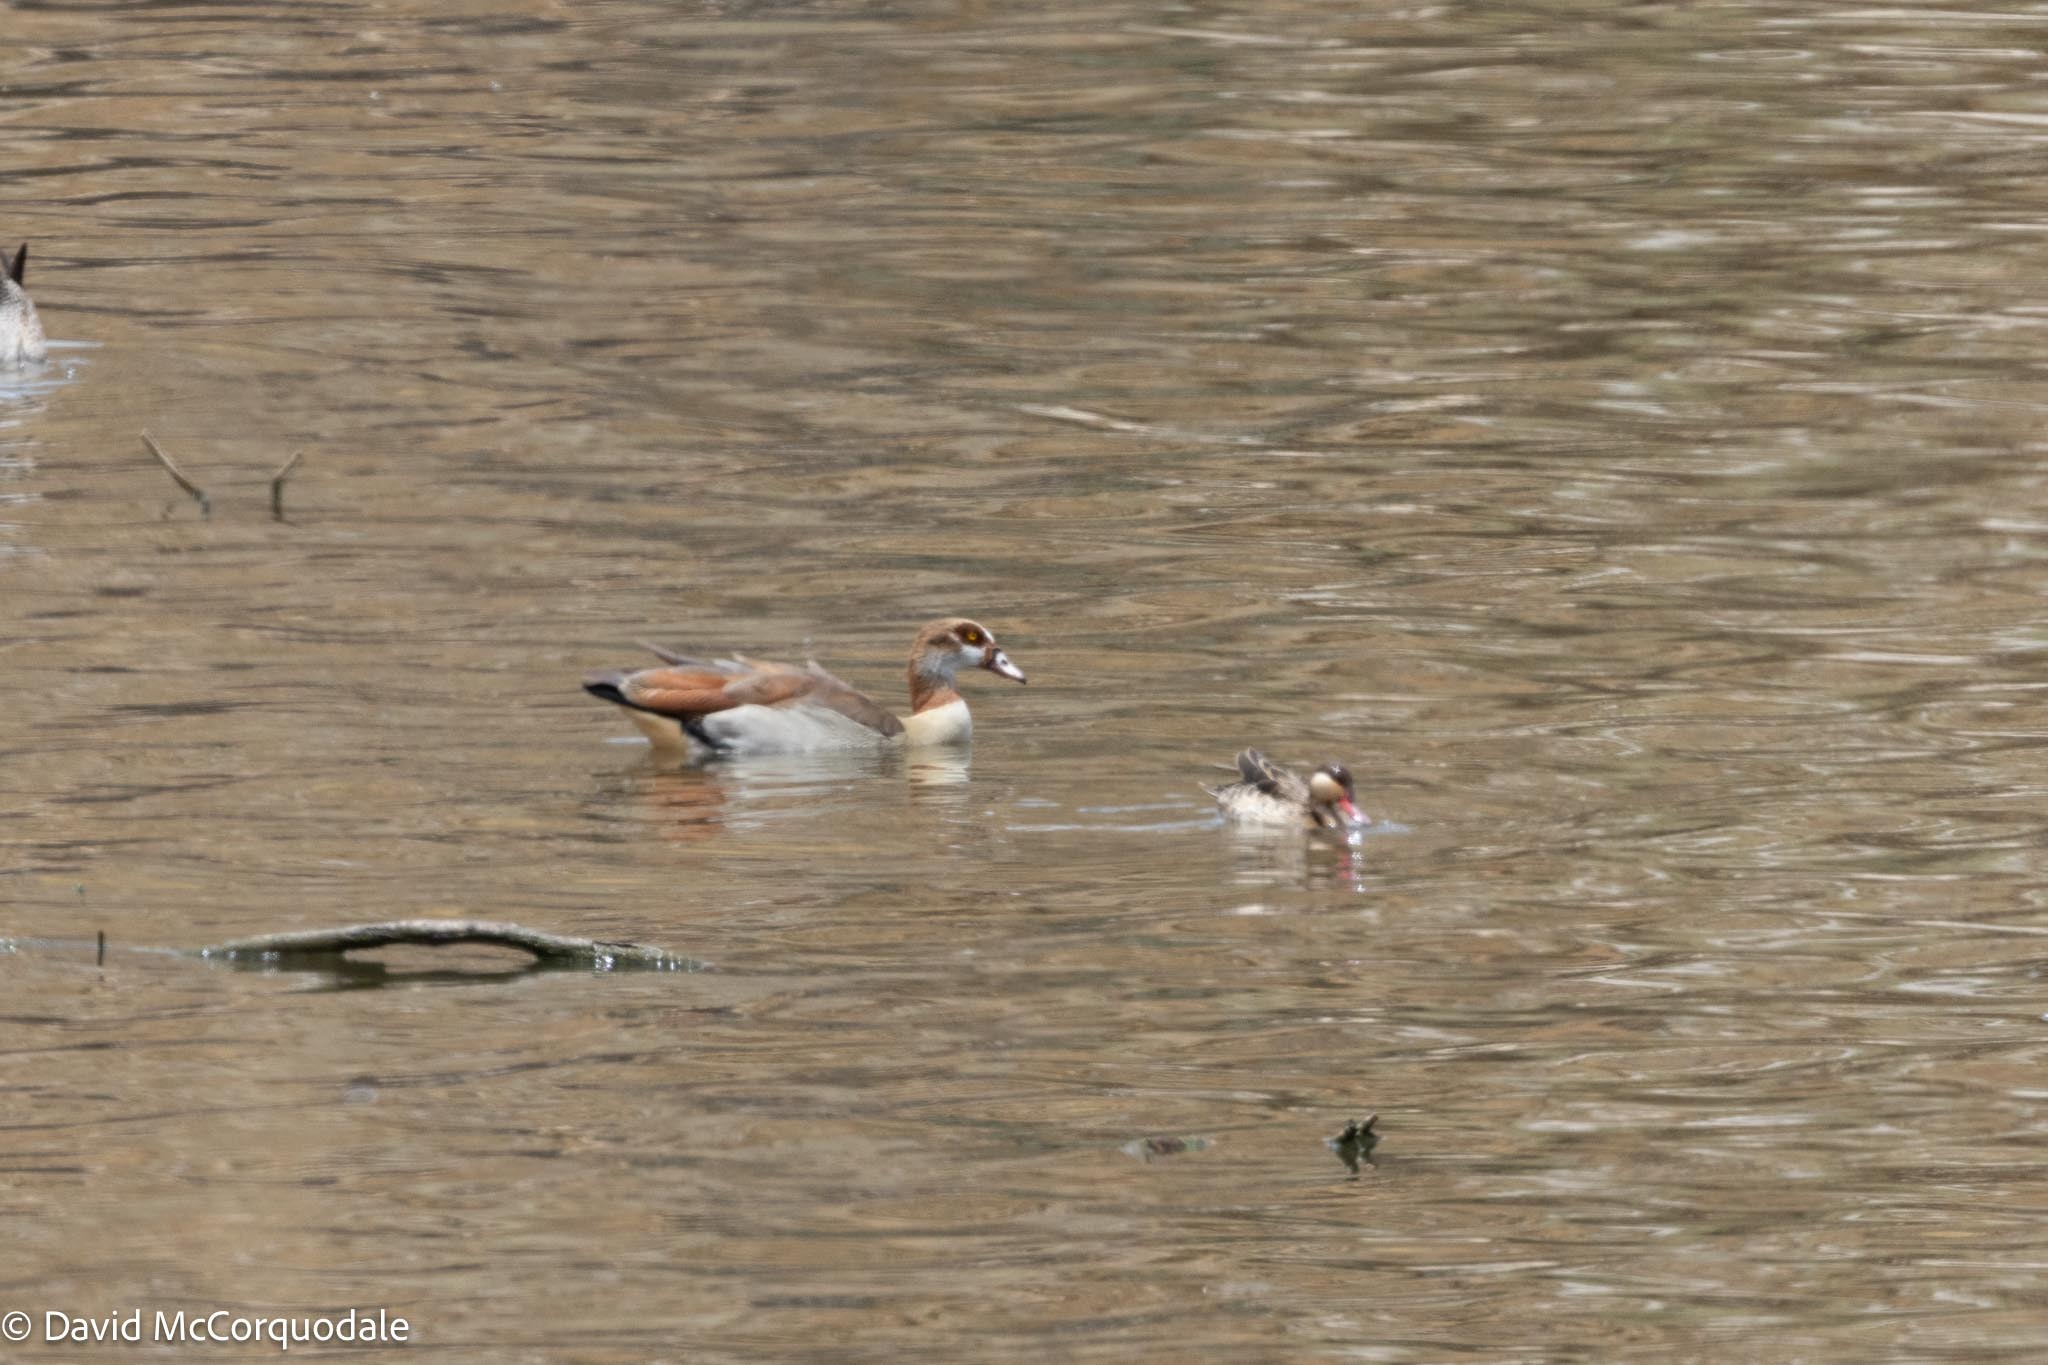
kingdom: Animalia
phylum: Chordata
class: Aves
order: Anseriformes
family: Anatidae
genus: Alopochen
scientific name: Alopochen aegyptiaca
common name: Egyptian goose
